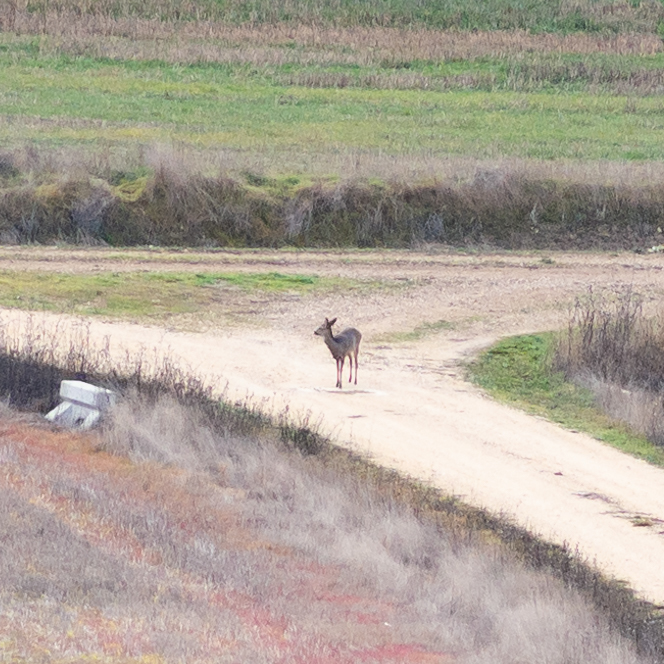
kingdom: Animalia
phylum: Chordata
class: Mammalia
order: Artiodactyla
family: Cervidae
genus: Capreolus
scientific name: Capreolus capreolus
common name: Western roe deer
